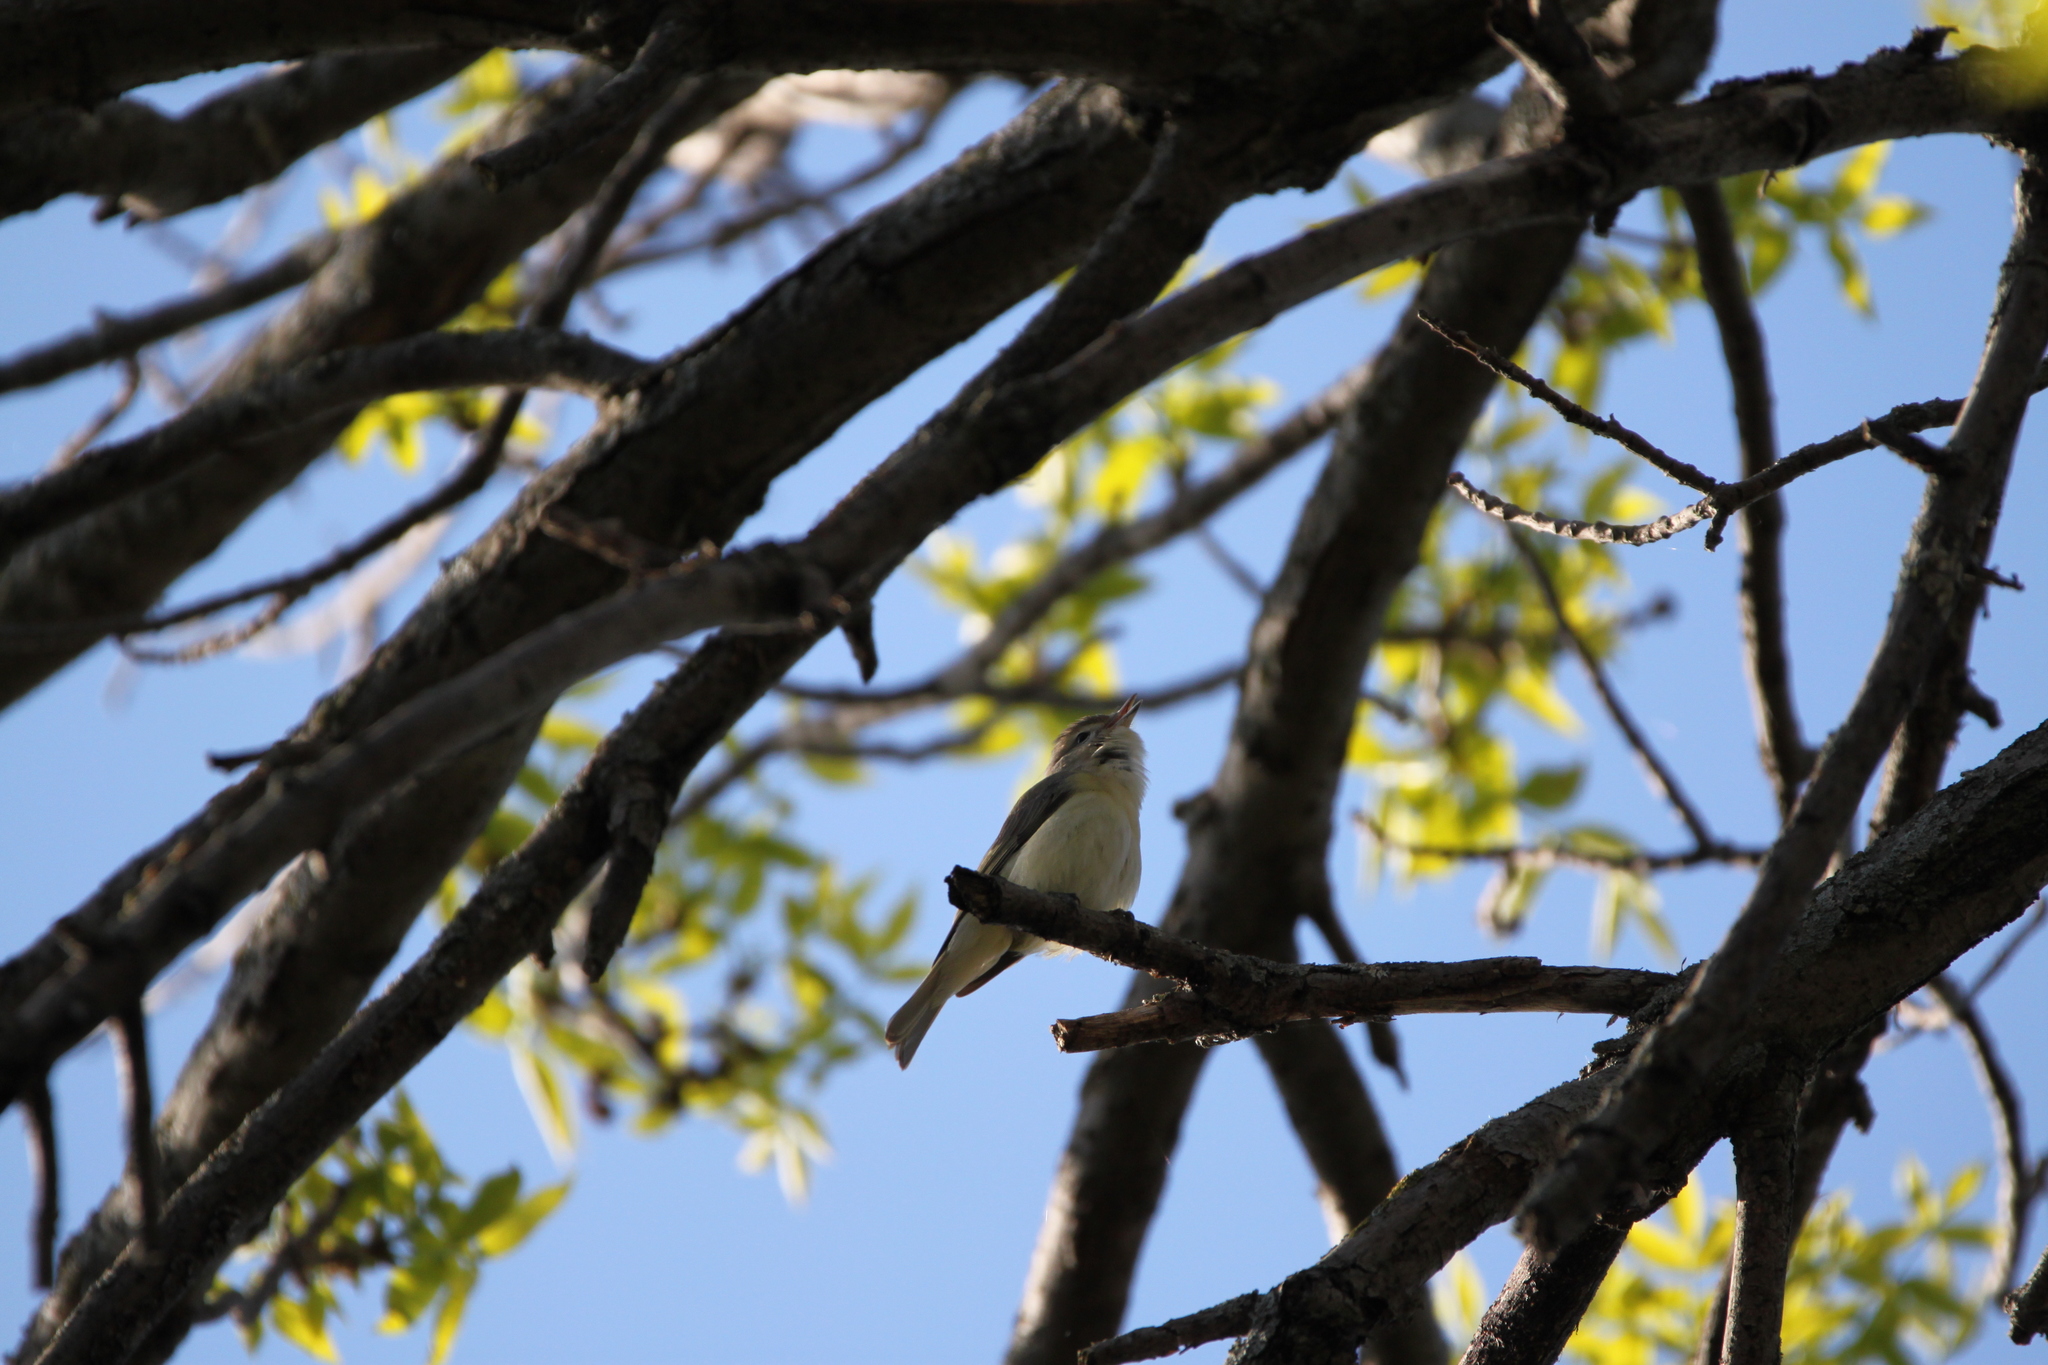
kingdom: Animalia
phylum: Chordata
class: Aves
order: Passeriformes
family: Vireonidae
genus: Vireo
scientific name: Vireo gilvus
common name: Warbling vireo
